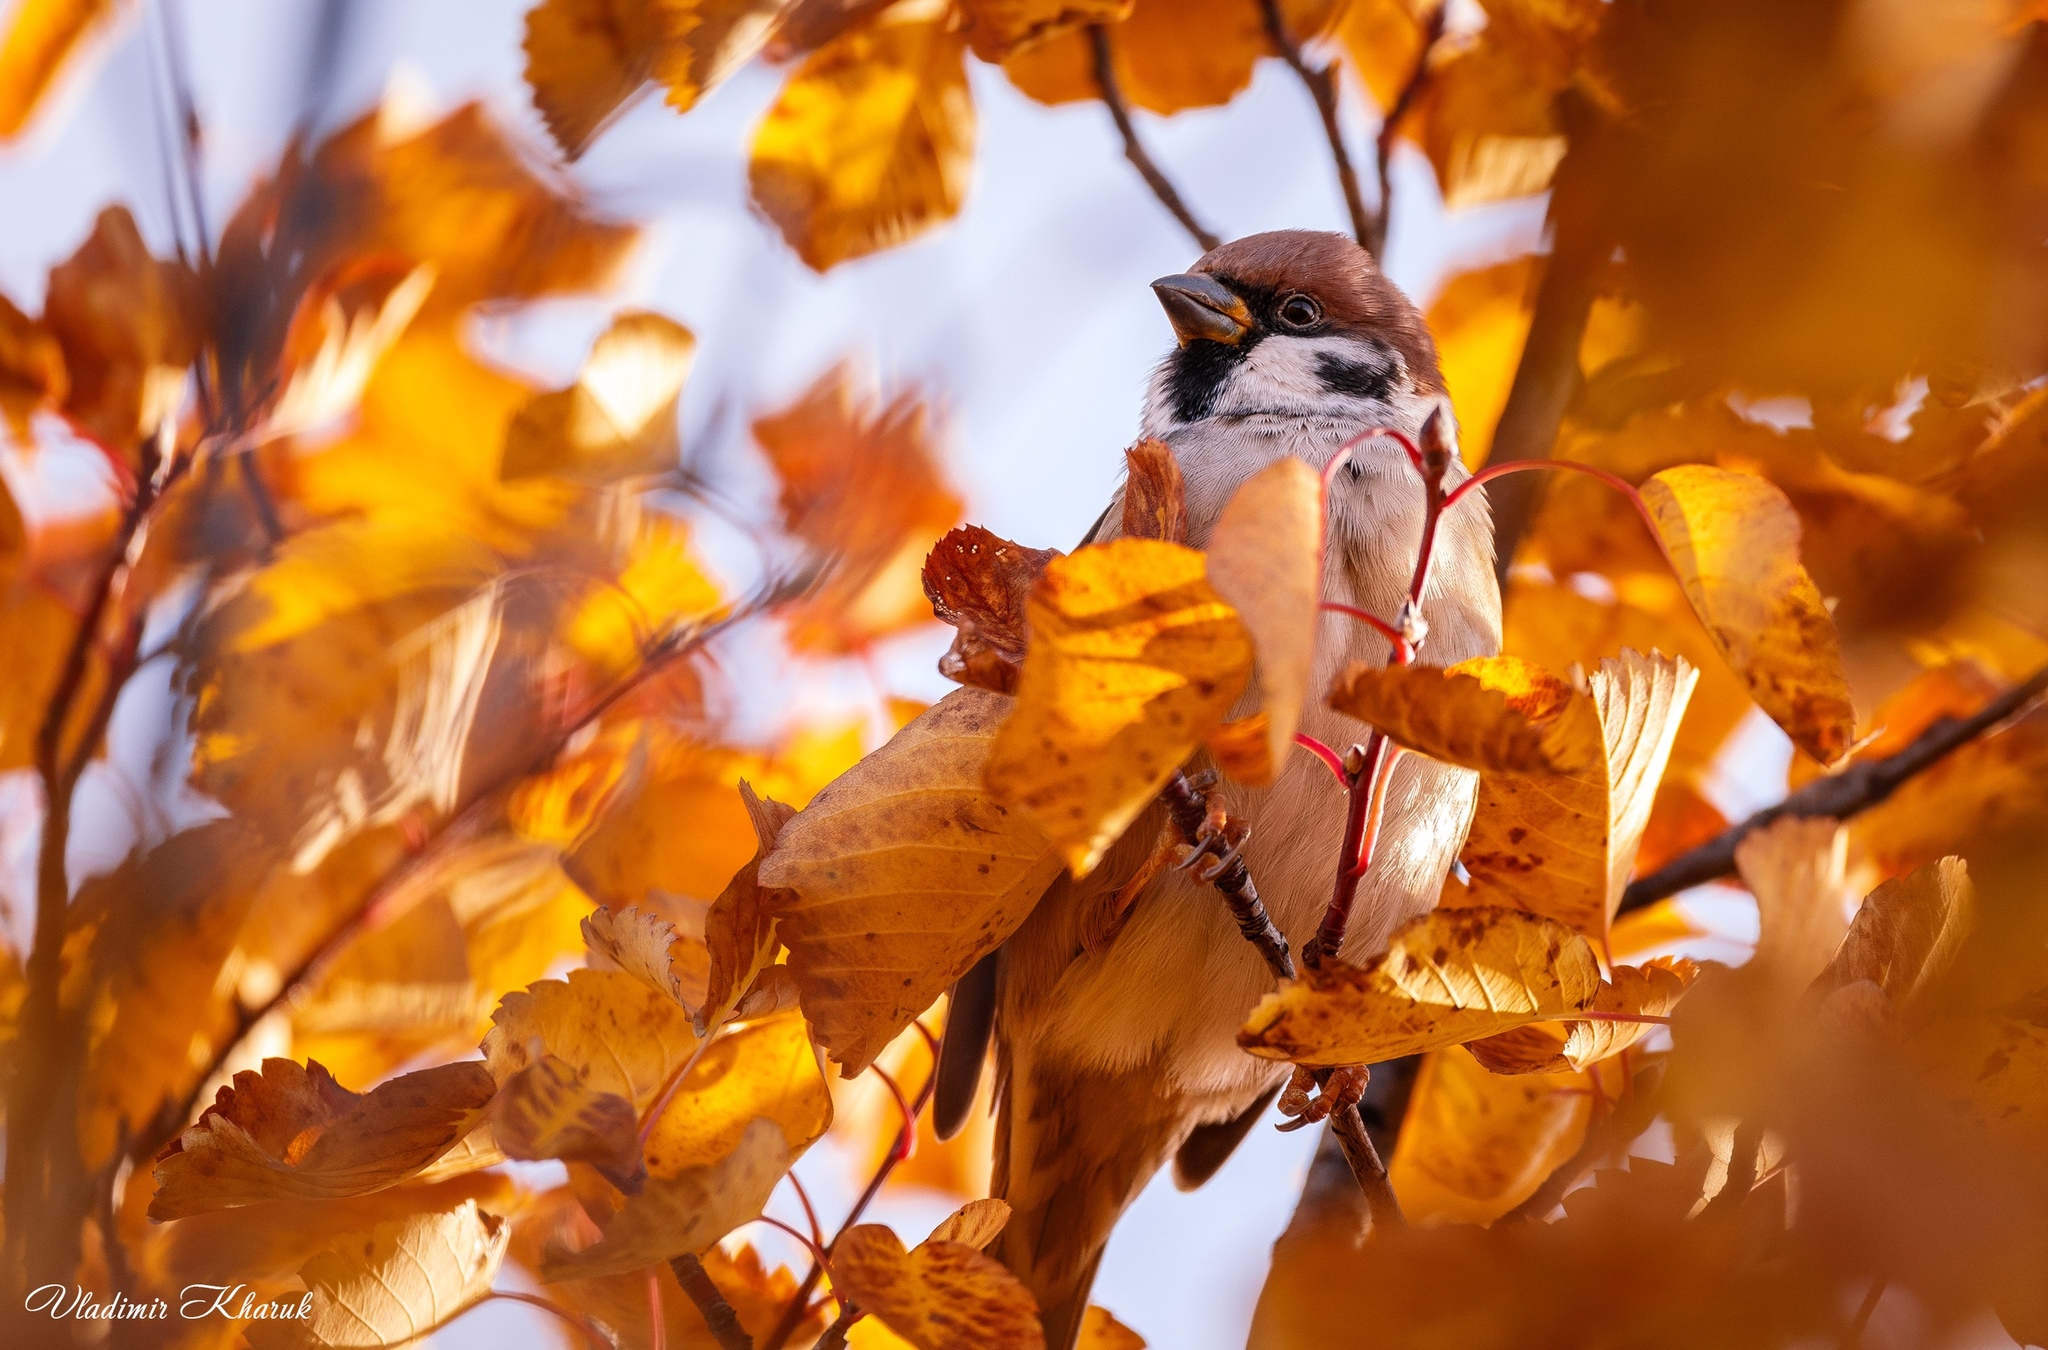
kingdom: Animalia
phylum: Chordata
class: Aves
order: Passeriformes
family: Passeridae
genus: Passer
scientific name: Passer montanus
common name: Eurasian tree sparrow
